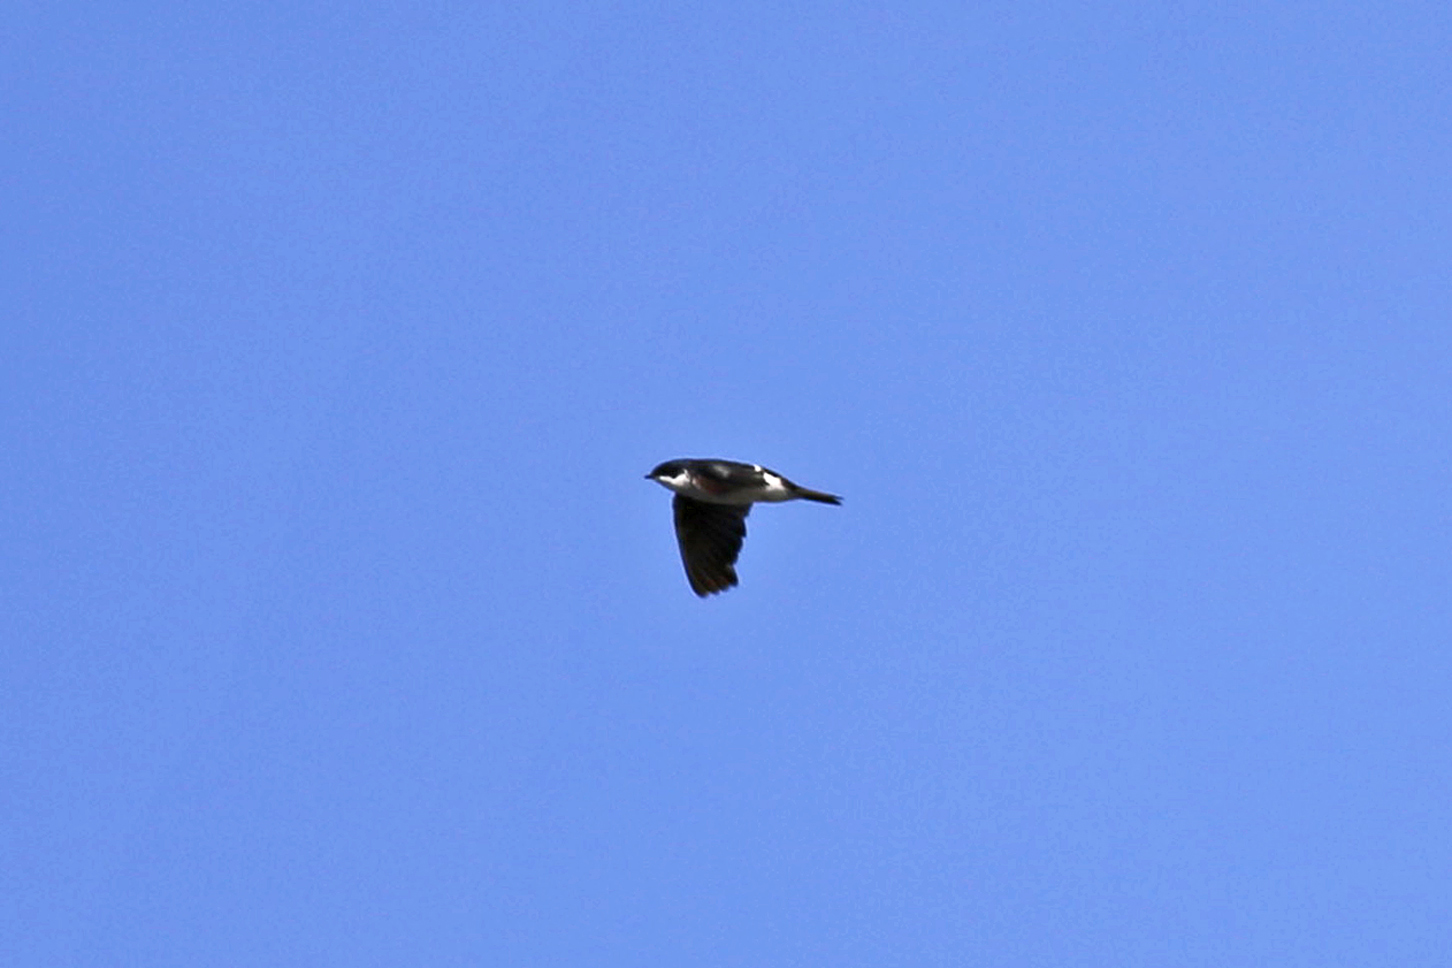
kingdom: Animalia
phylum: Chordata
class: Aves
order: Passeriformes
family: Hirundinidae
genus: Tachycineta
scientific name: Tachycineta bicolor
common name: Tree swallow
